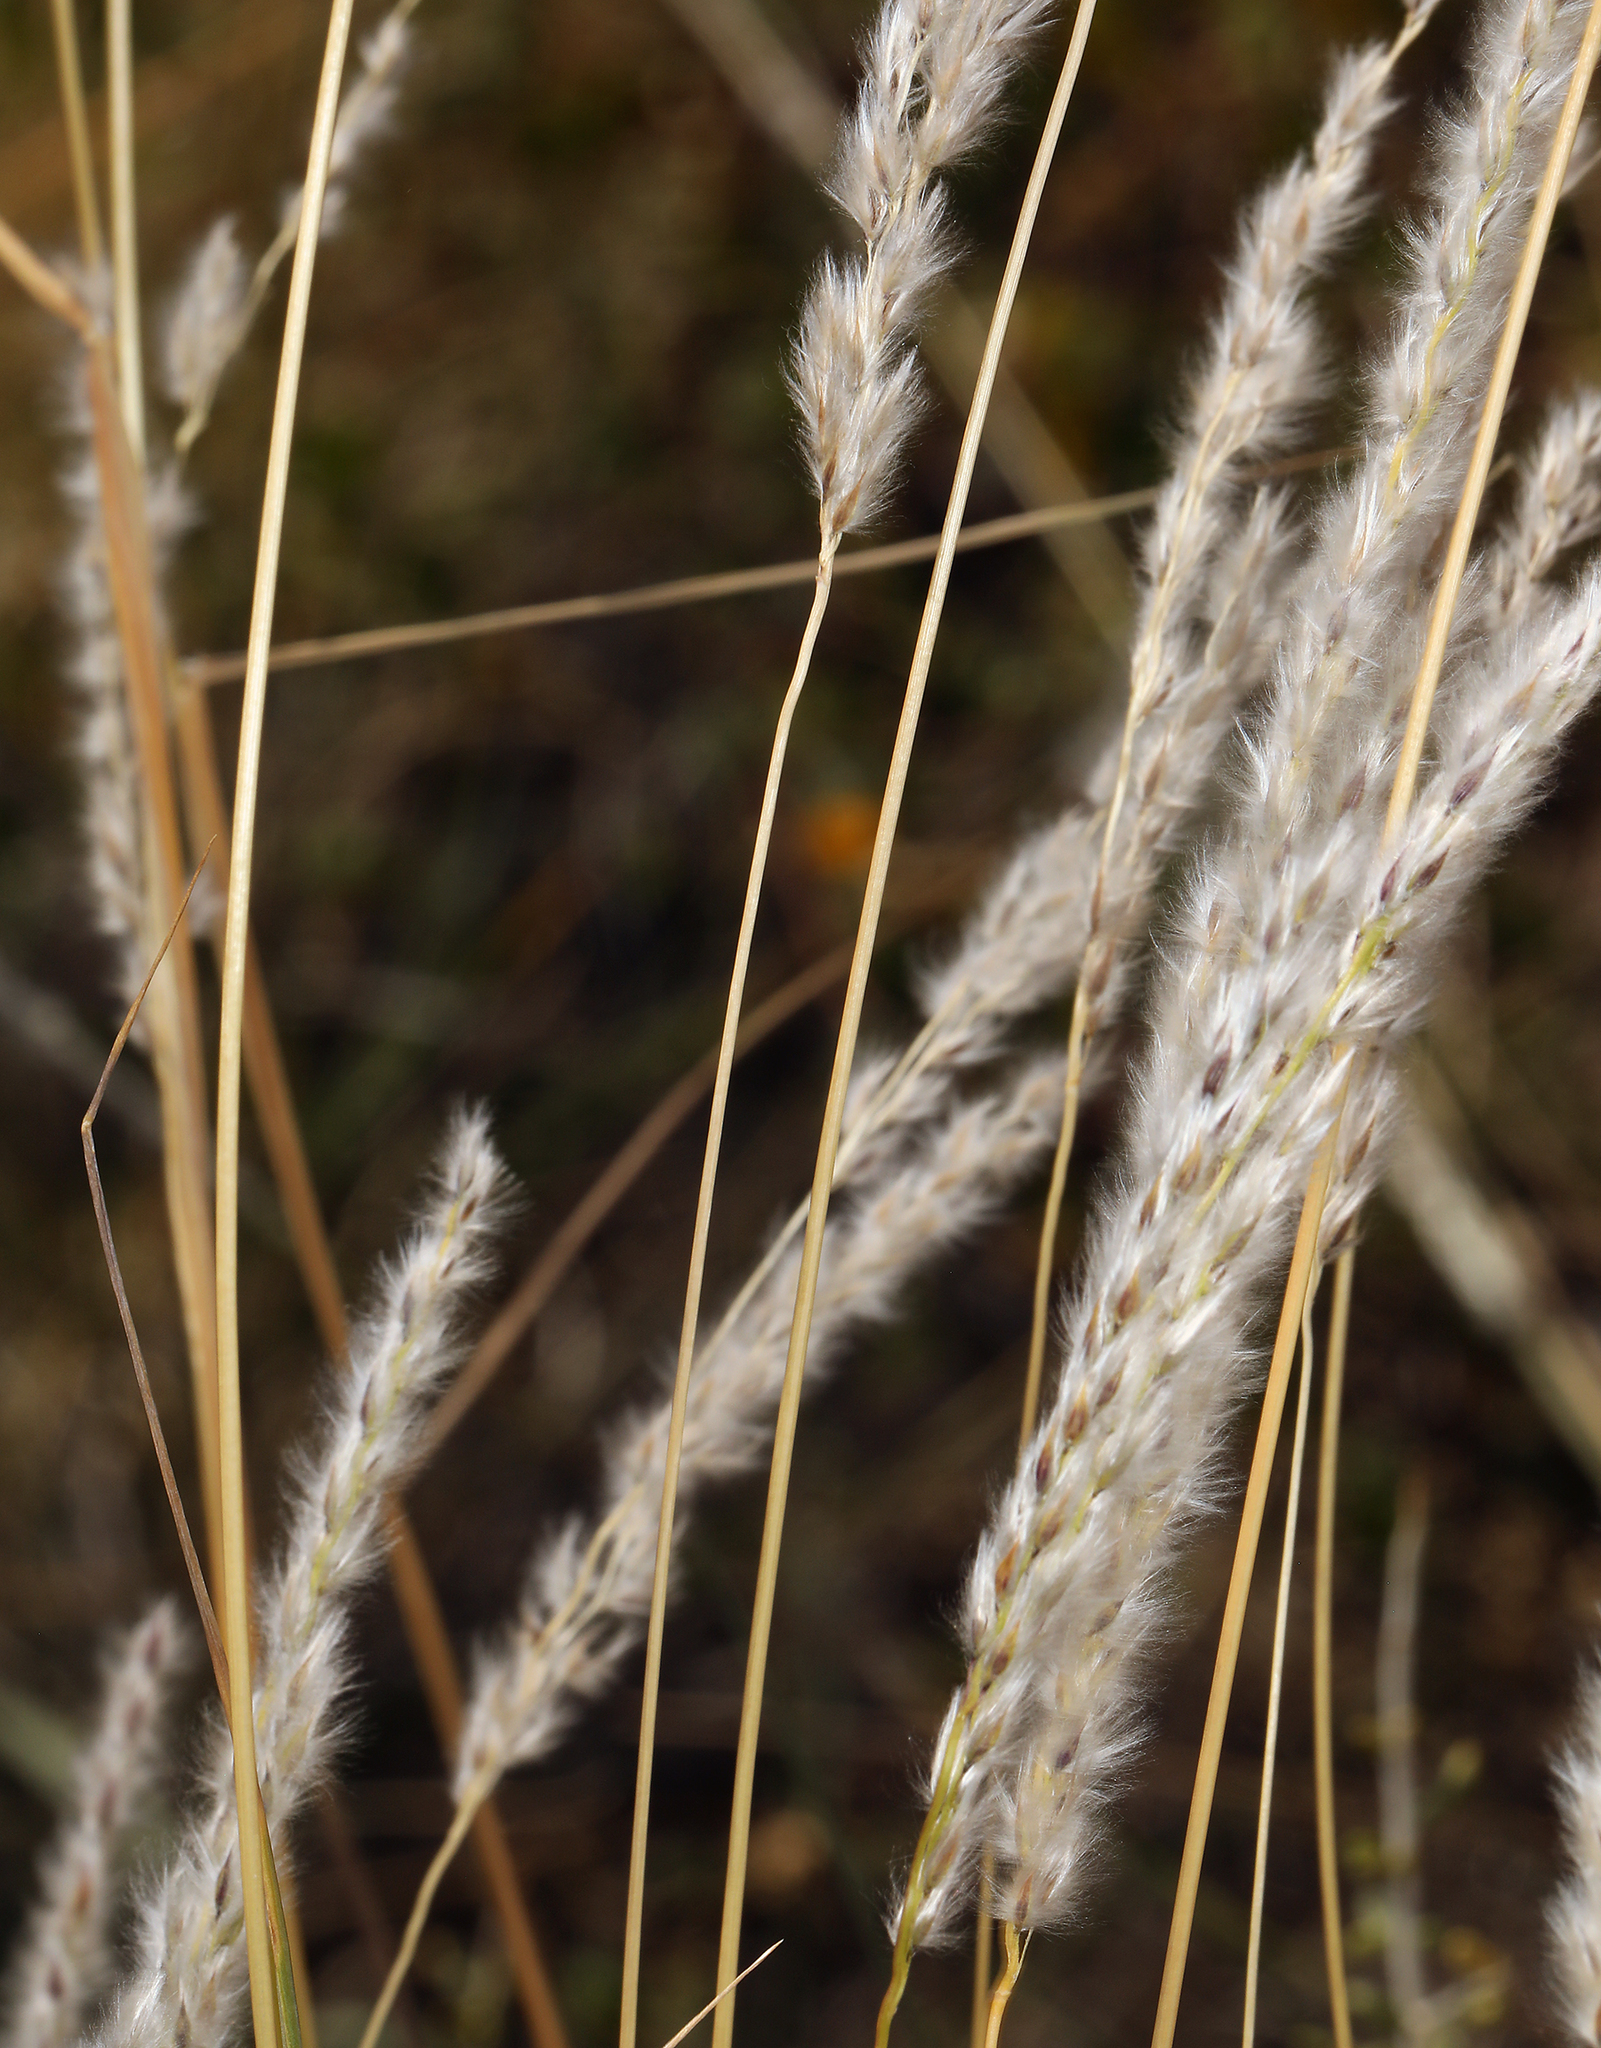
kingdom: Plantae
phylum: Tracheophyta
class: Liliopsida
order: Poales
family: Poaceae
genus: Digitaria
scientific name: Digitaria californica
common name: Arizona cottontop
